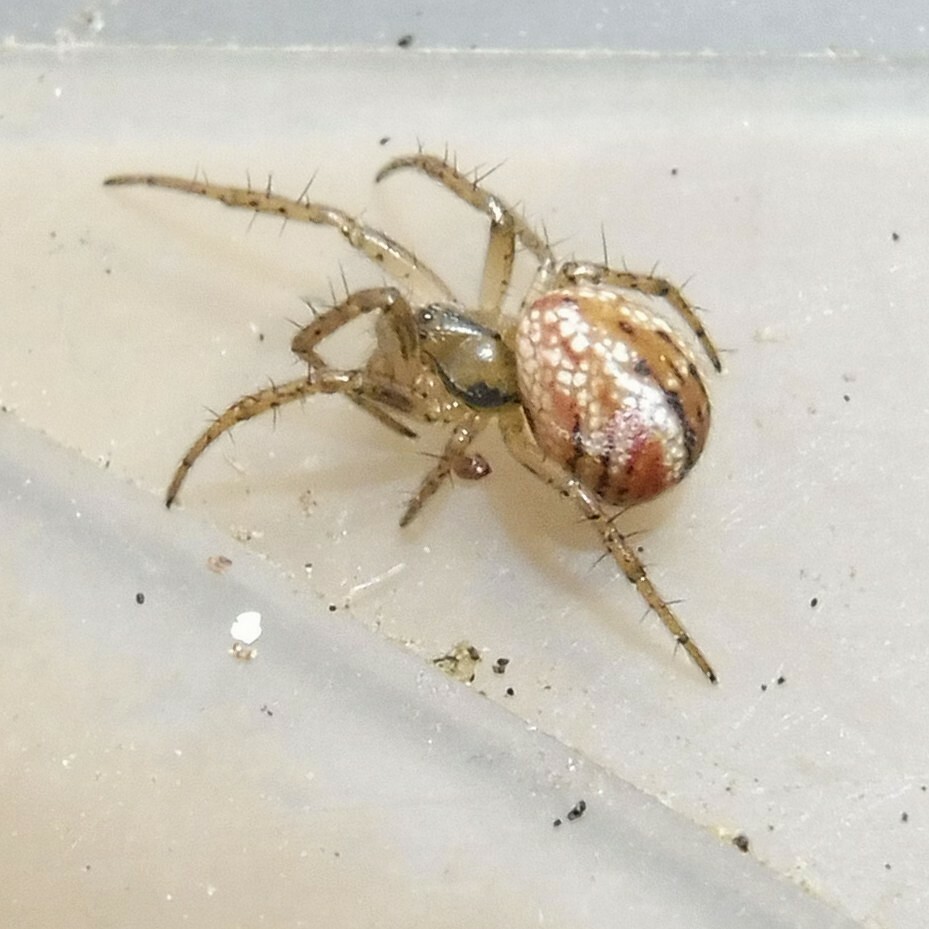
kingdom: Animalia
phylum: Arthropoda
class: Arachnida
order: Araneae
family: Araneidae
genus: Mangora
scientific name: Mangora acalypha
